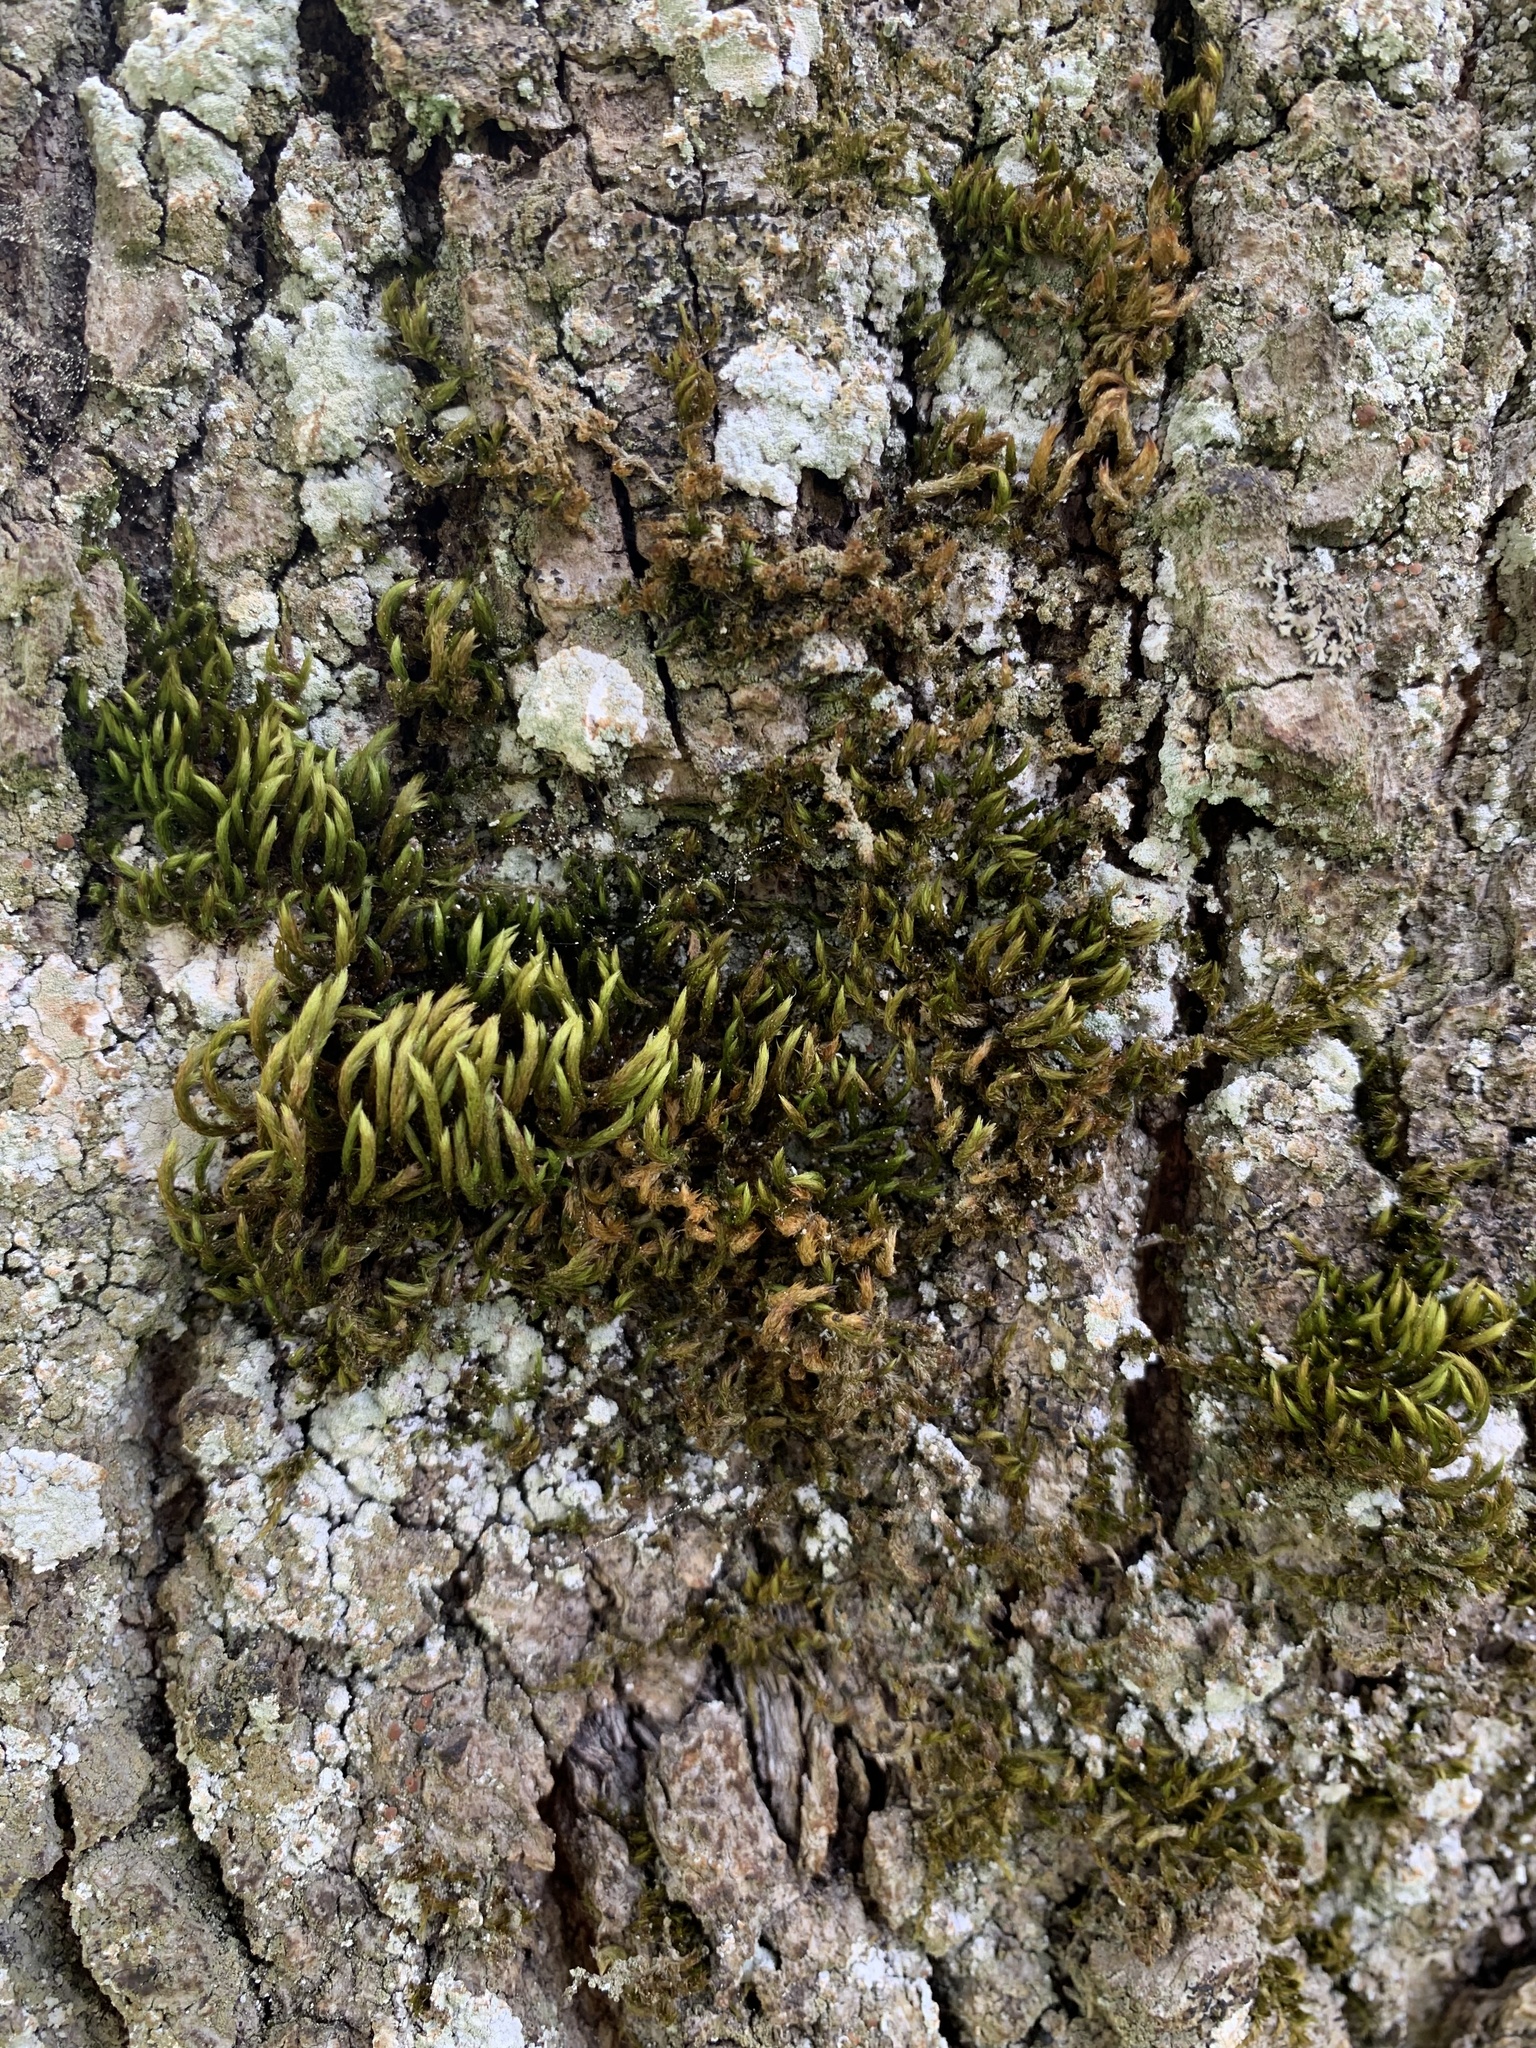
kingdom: Plantae
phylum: Bryophyta
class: Bryopsida
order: Hypnales
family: Leucodontaceae
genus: Leucodon
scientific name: Leucodon sciuroides
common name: Squirrel-tail moss
